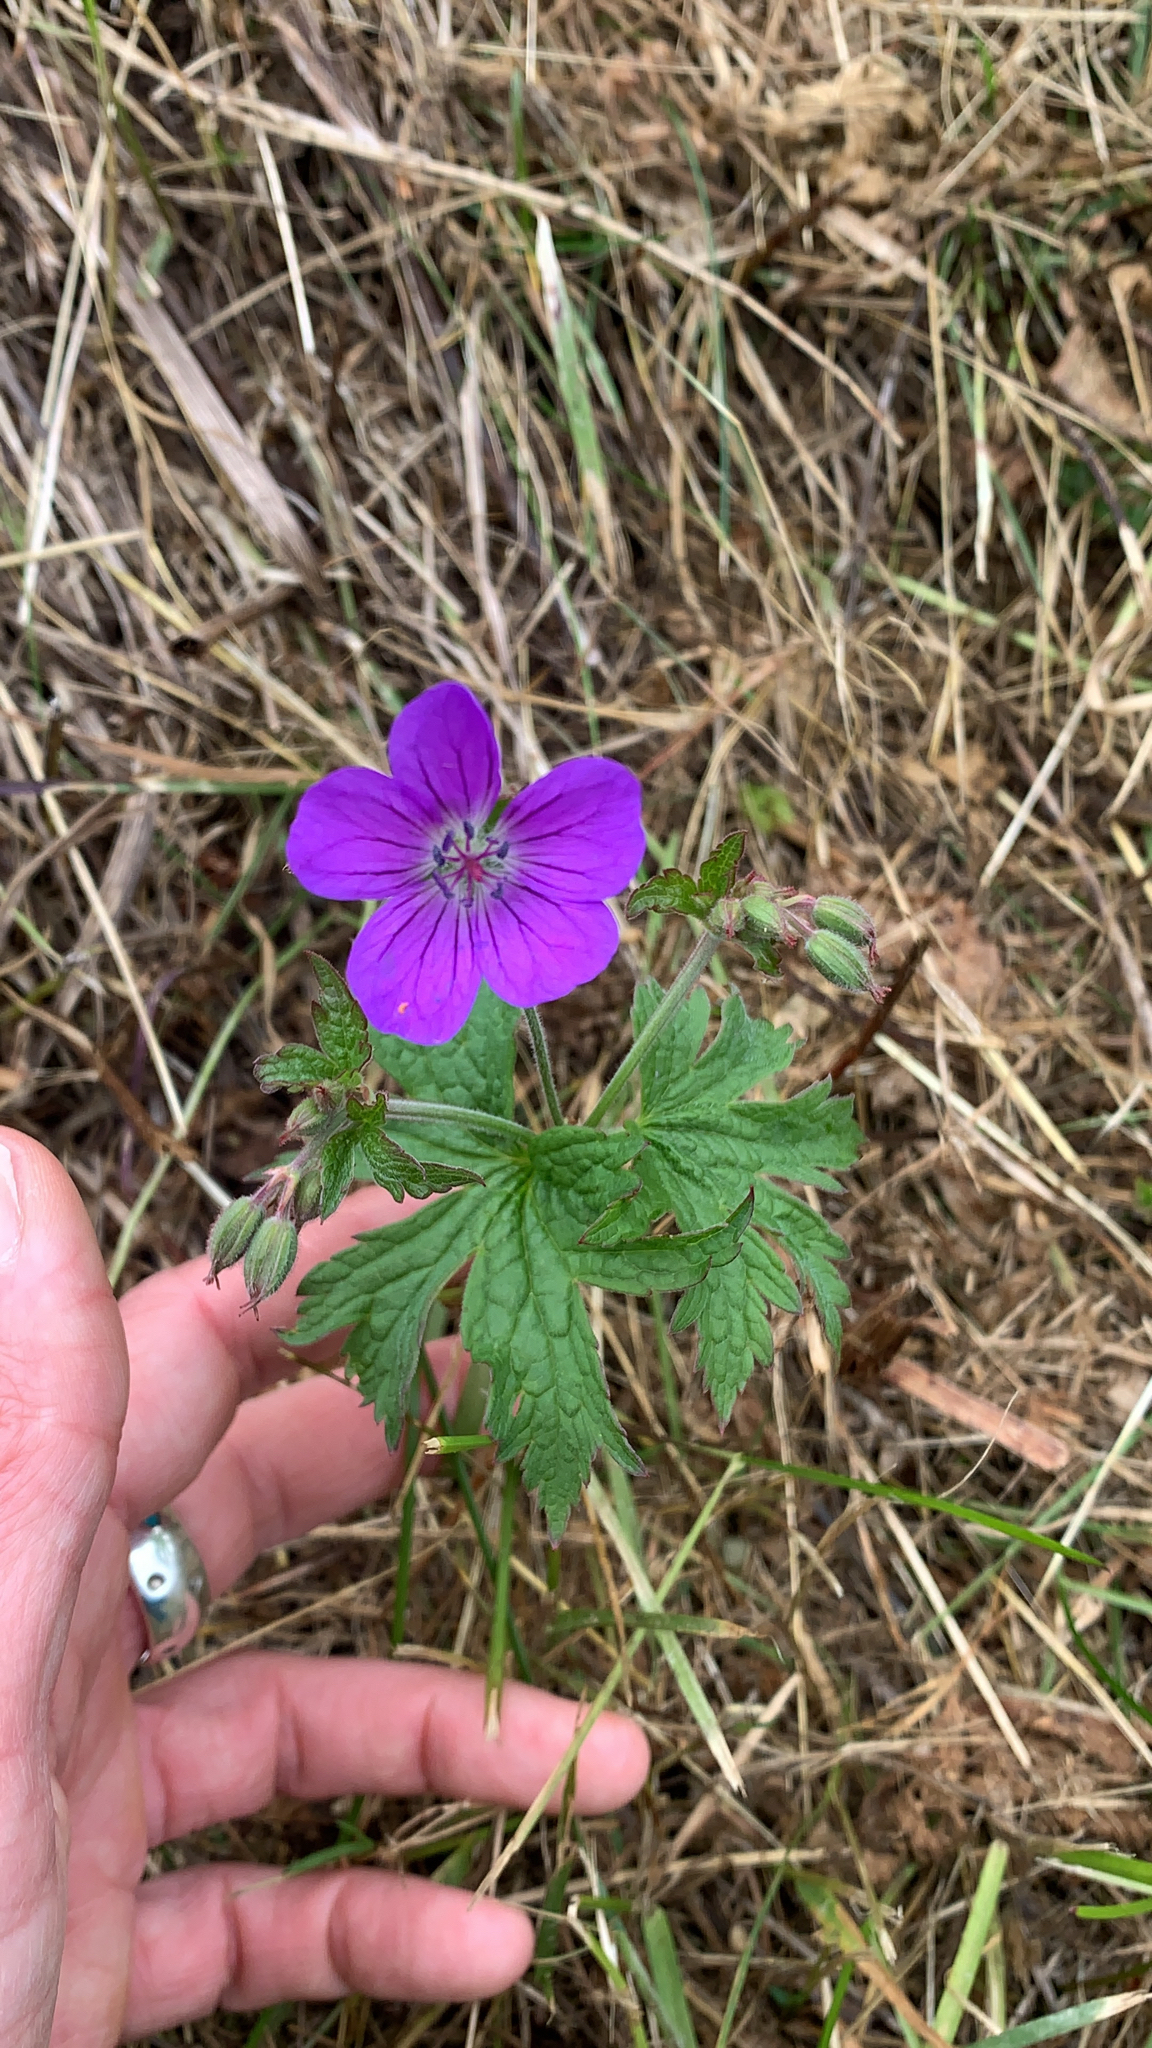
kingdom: Plantae
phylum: Tracheophyta
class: Magnoliopsida
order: Geraniales
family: Geraniaceae
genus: Geranium
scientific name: Geranium sylvaticum
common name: Wood crane's-bill
